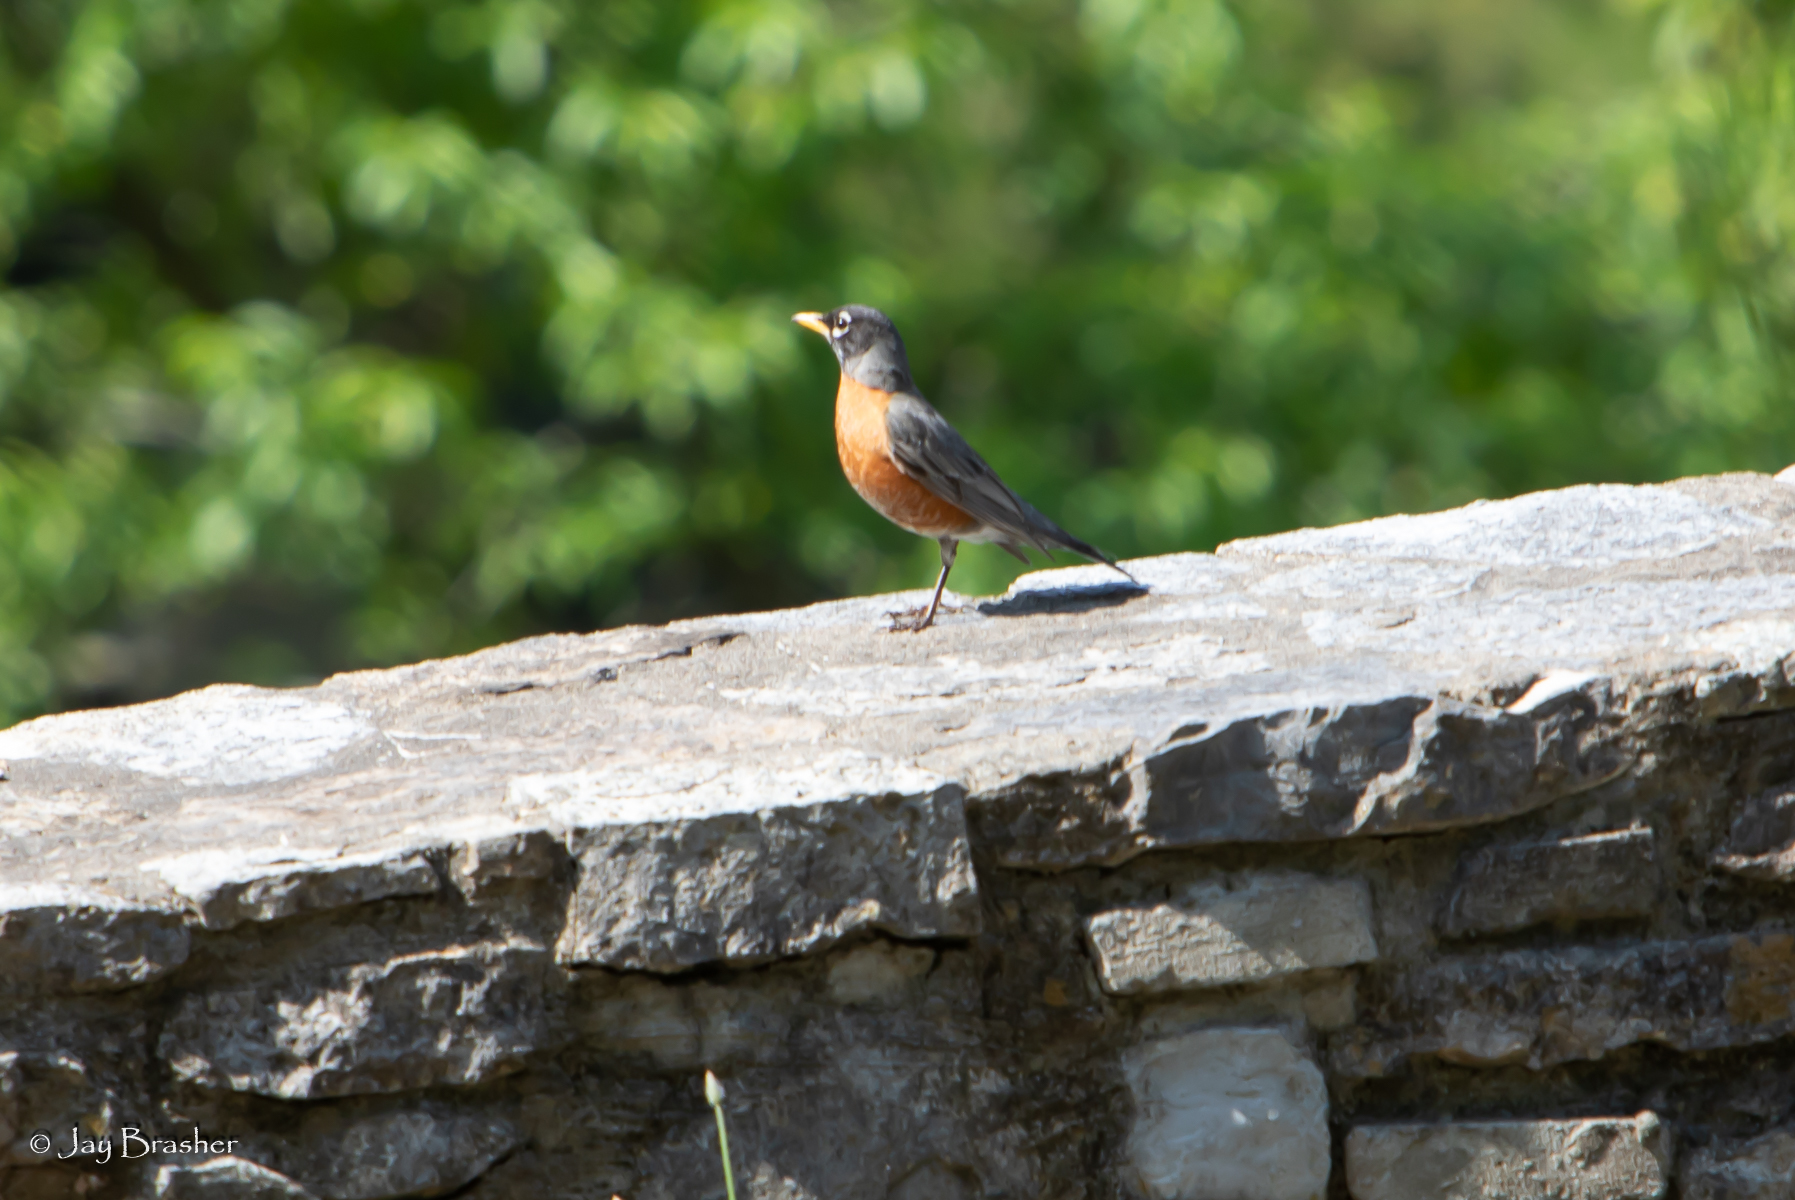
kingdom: Animalia
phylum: Chordata
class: Aves
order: Passeriformes
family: Turdidae
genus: Turdus
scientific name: Turdus migratorius
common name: American robin
